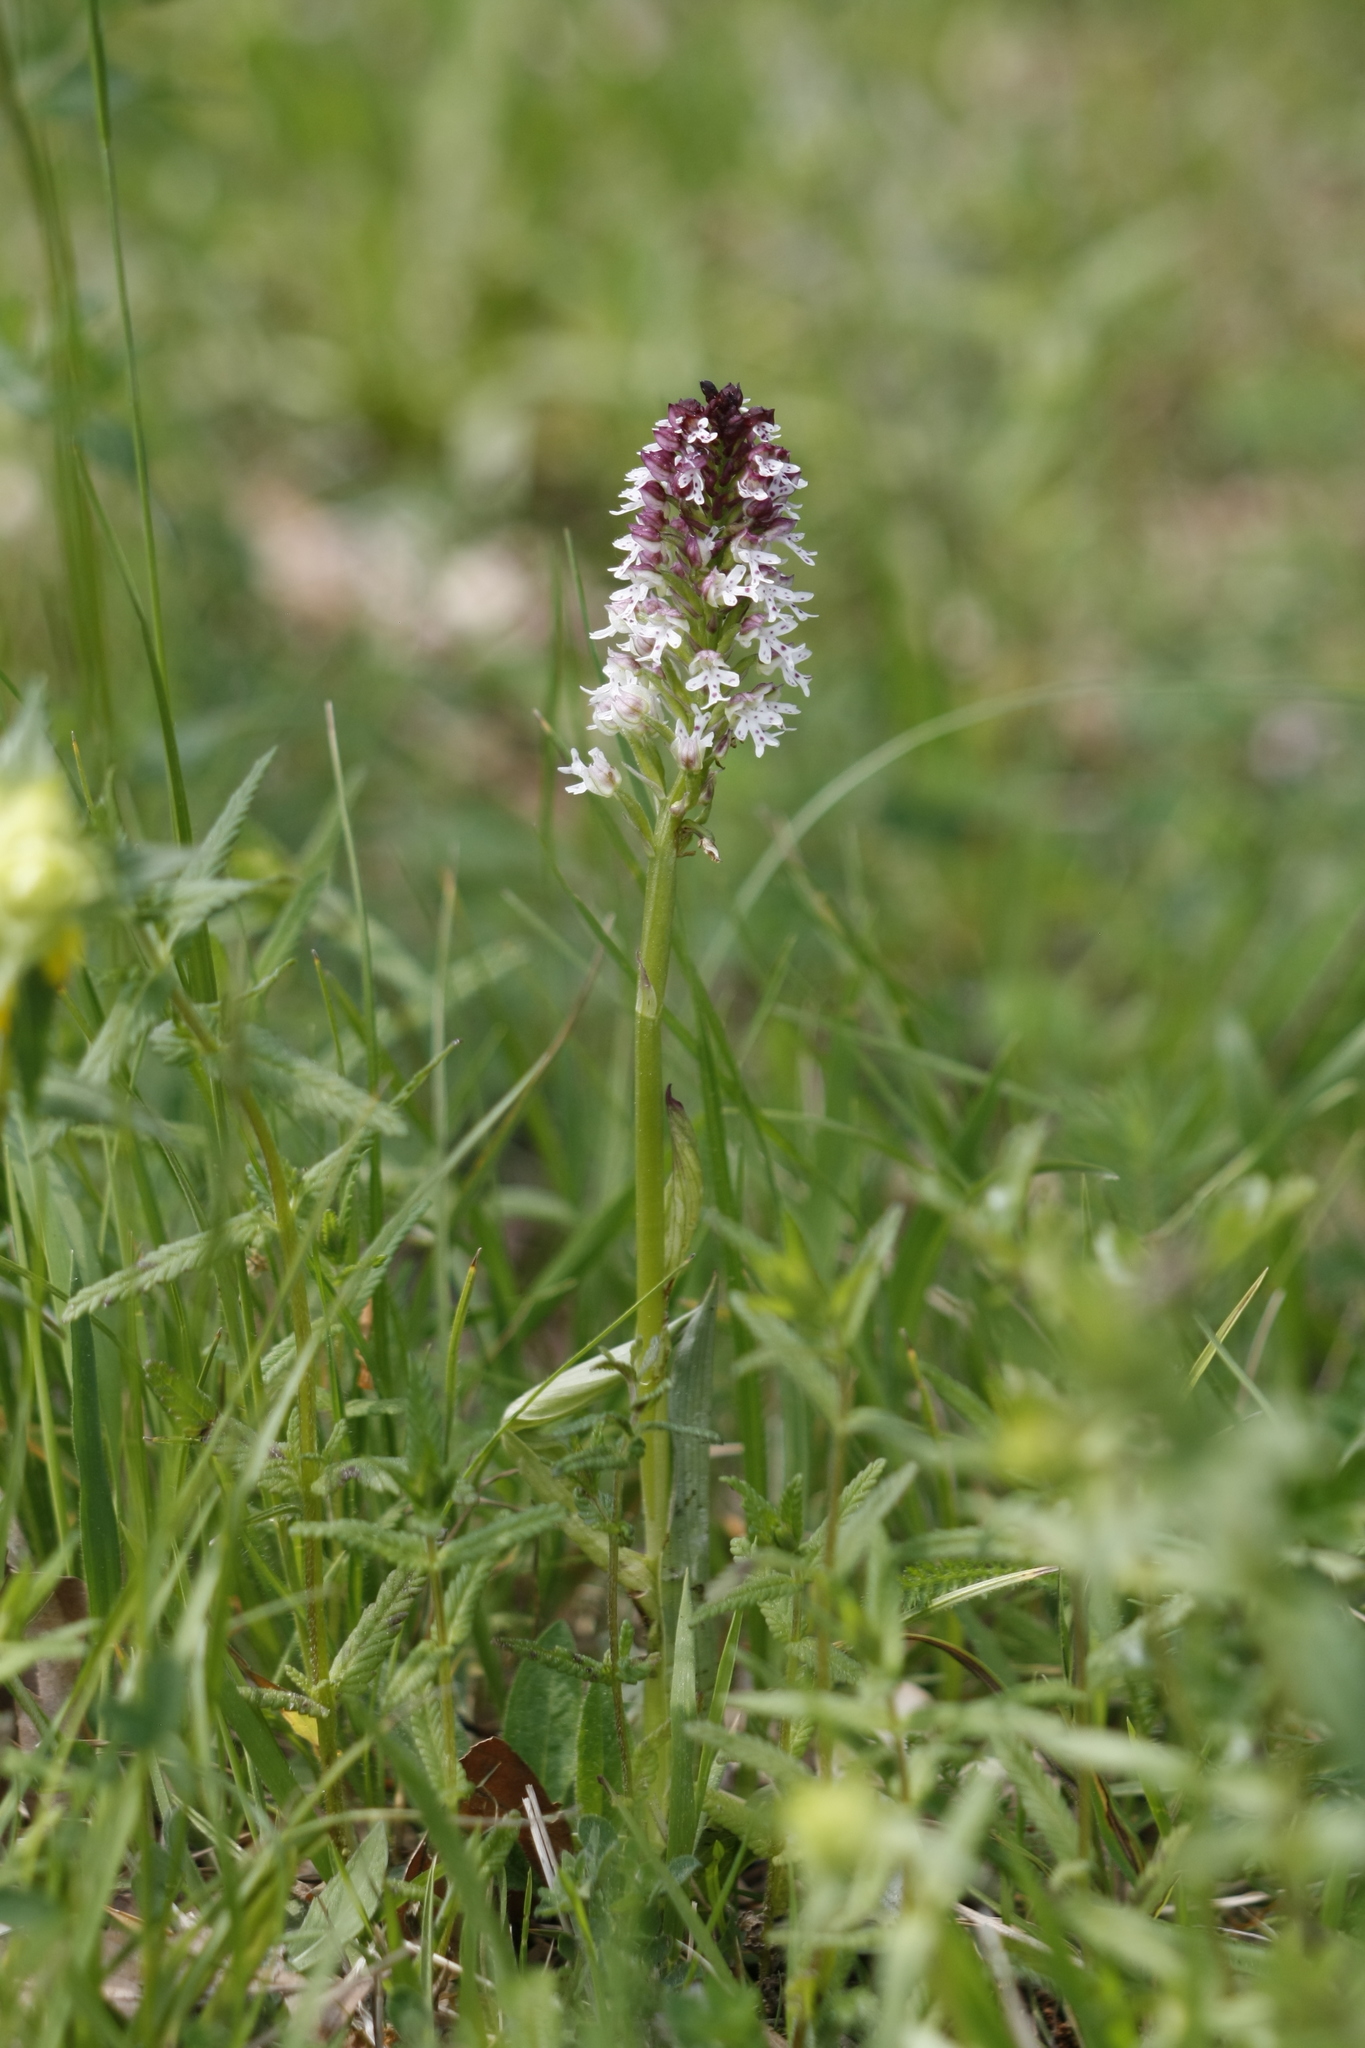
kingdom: Plantae
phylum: Tracheophyta
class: Liliopsida
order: Asparagales
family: Orchidaceae
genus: Neotinea
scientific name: Neotinea ustulata
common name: Burnt orchid
